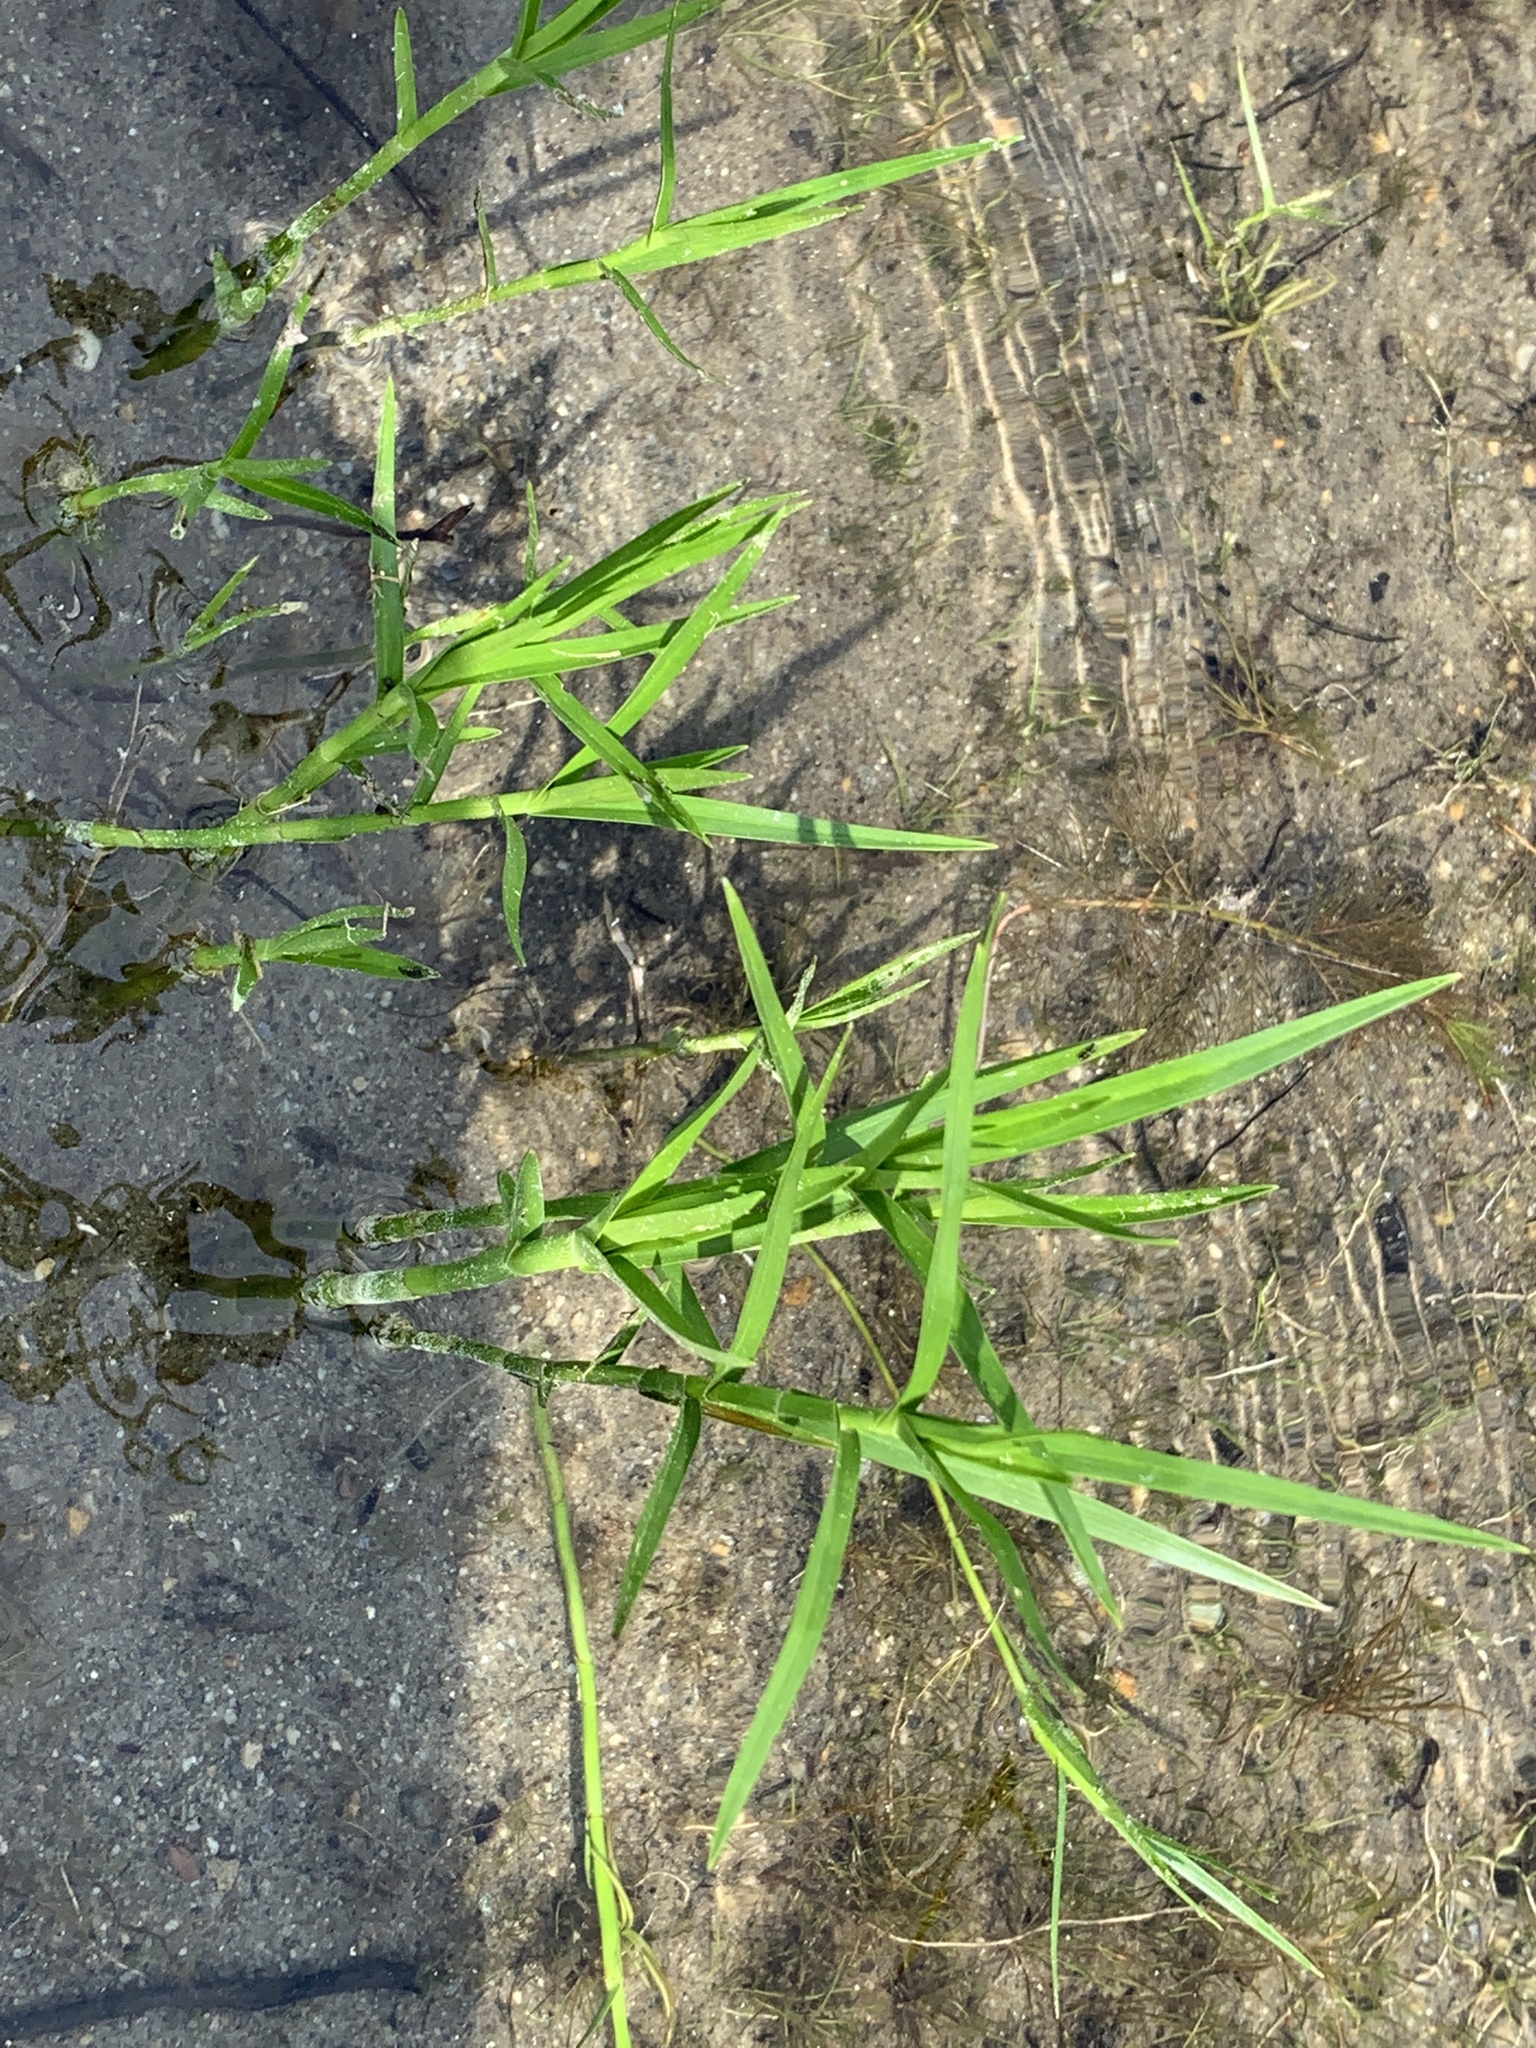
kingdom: Plantae
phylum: Tracheophyta
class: Liliopsida
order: Poales
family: Cyperaceae
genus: Dulichium
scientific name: Dulichium arundinaceum
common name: Three-way sedge
